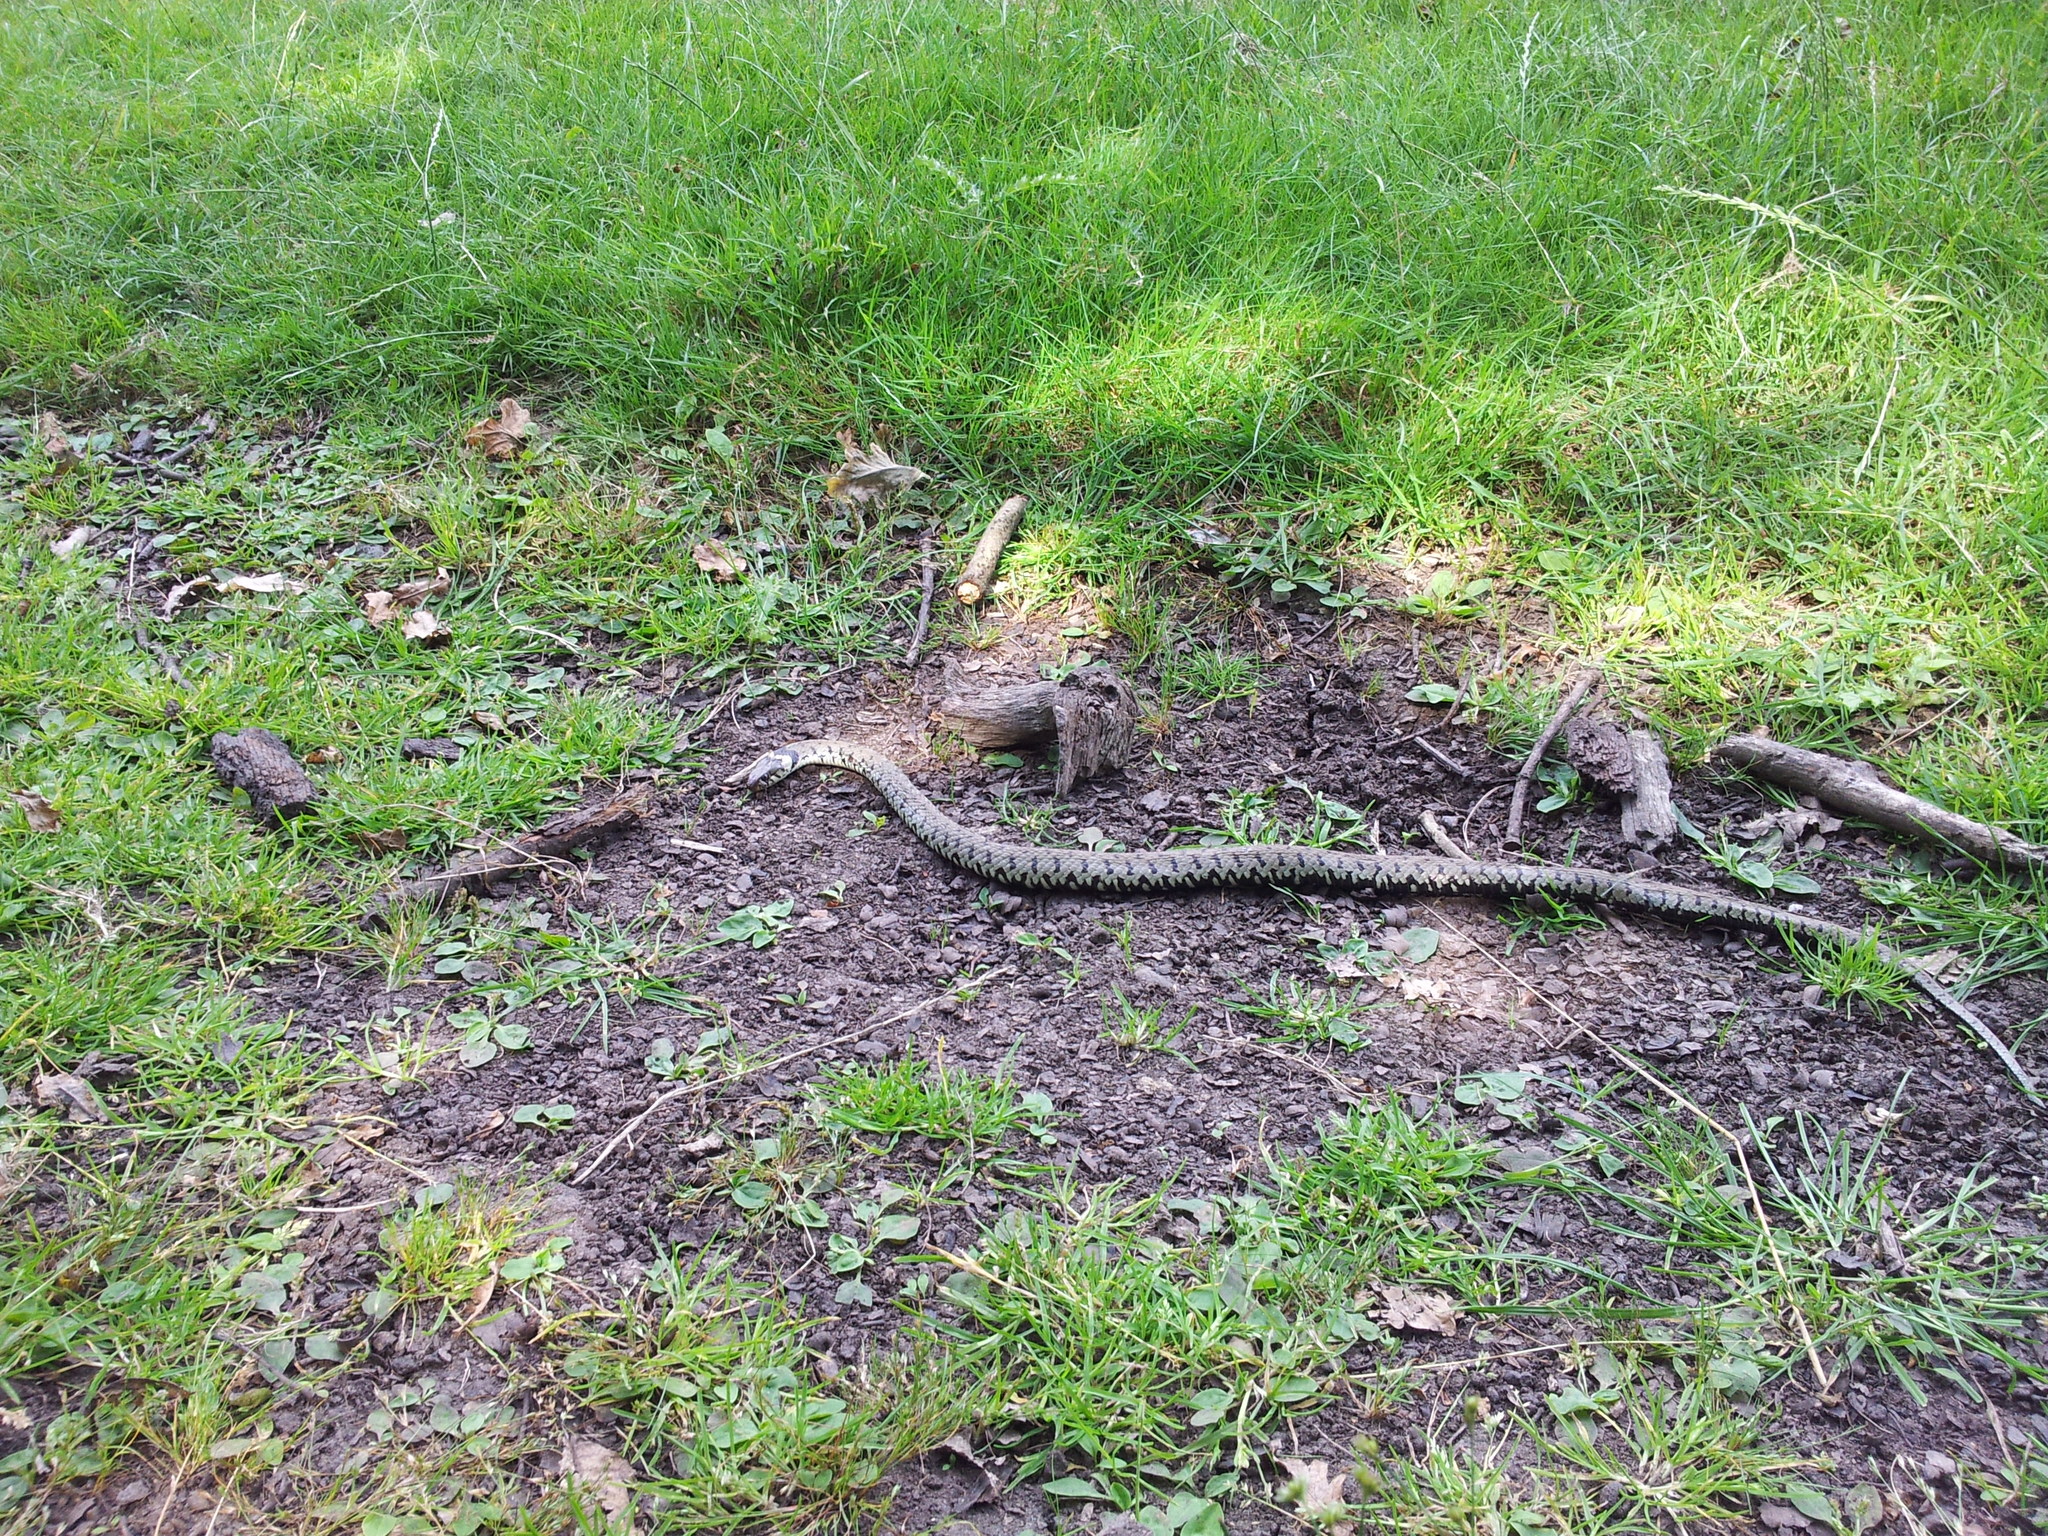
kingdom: Animalia
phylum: Chordata
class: Squamata
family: Colubridae
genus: Natrix
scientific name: Natrix helvetica
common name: Banded grass snake
